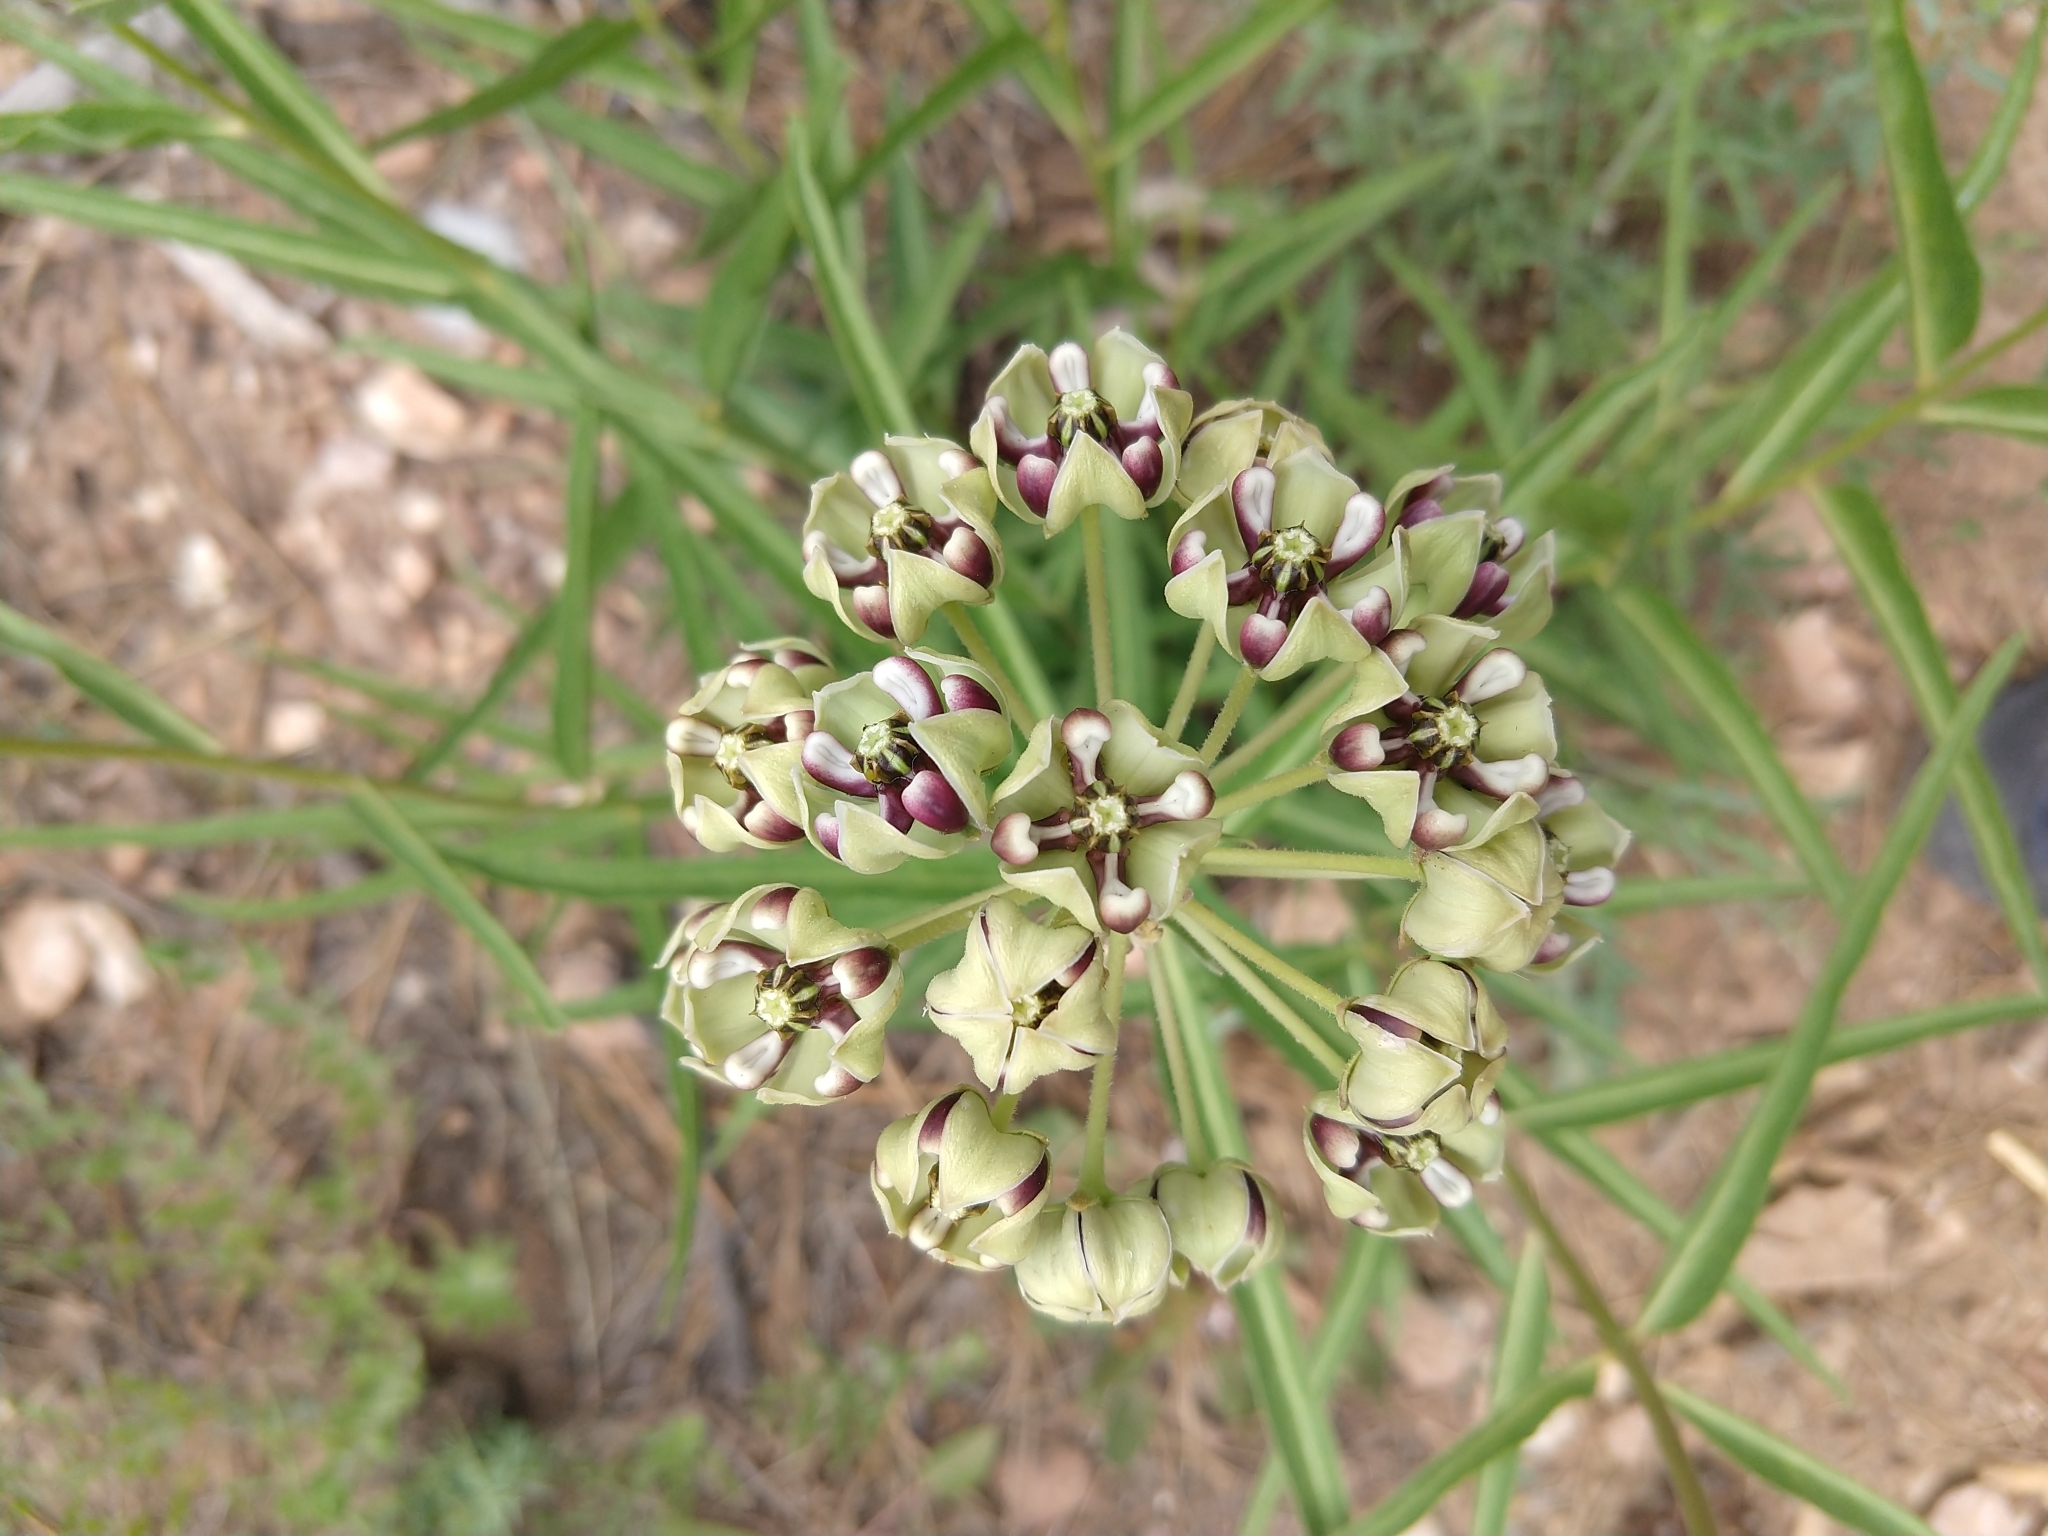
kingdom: Plantae
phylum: Tracheophyta
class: Magnoliopsida
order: Gentianales
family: Apocynaceae
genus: Asclepias
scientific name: Asclepias asperula
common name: Antelope horns
